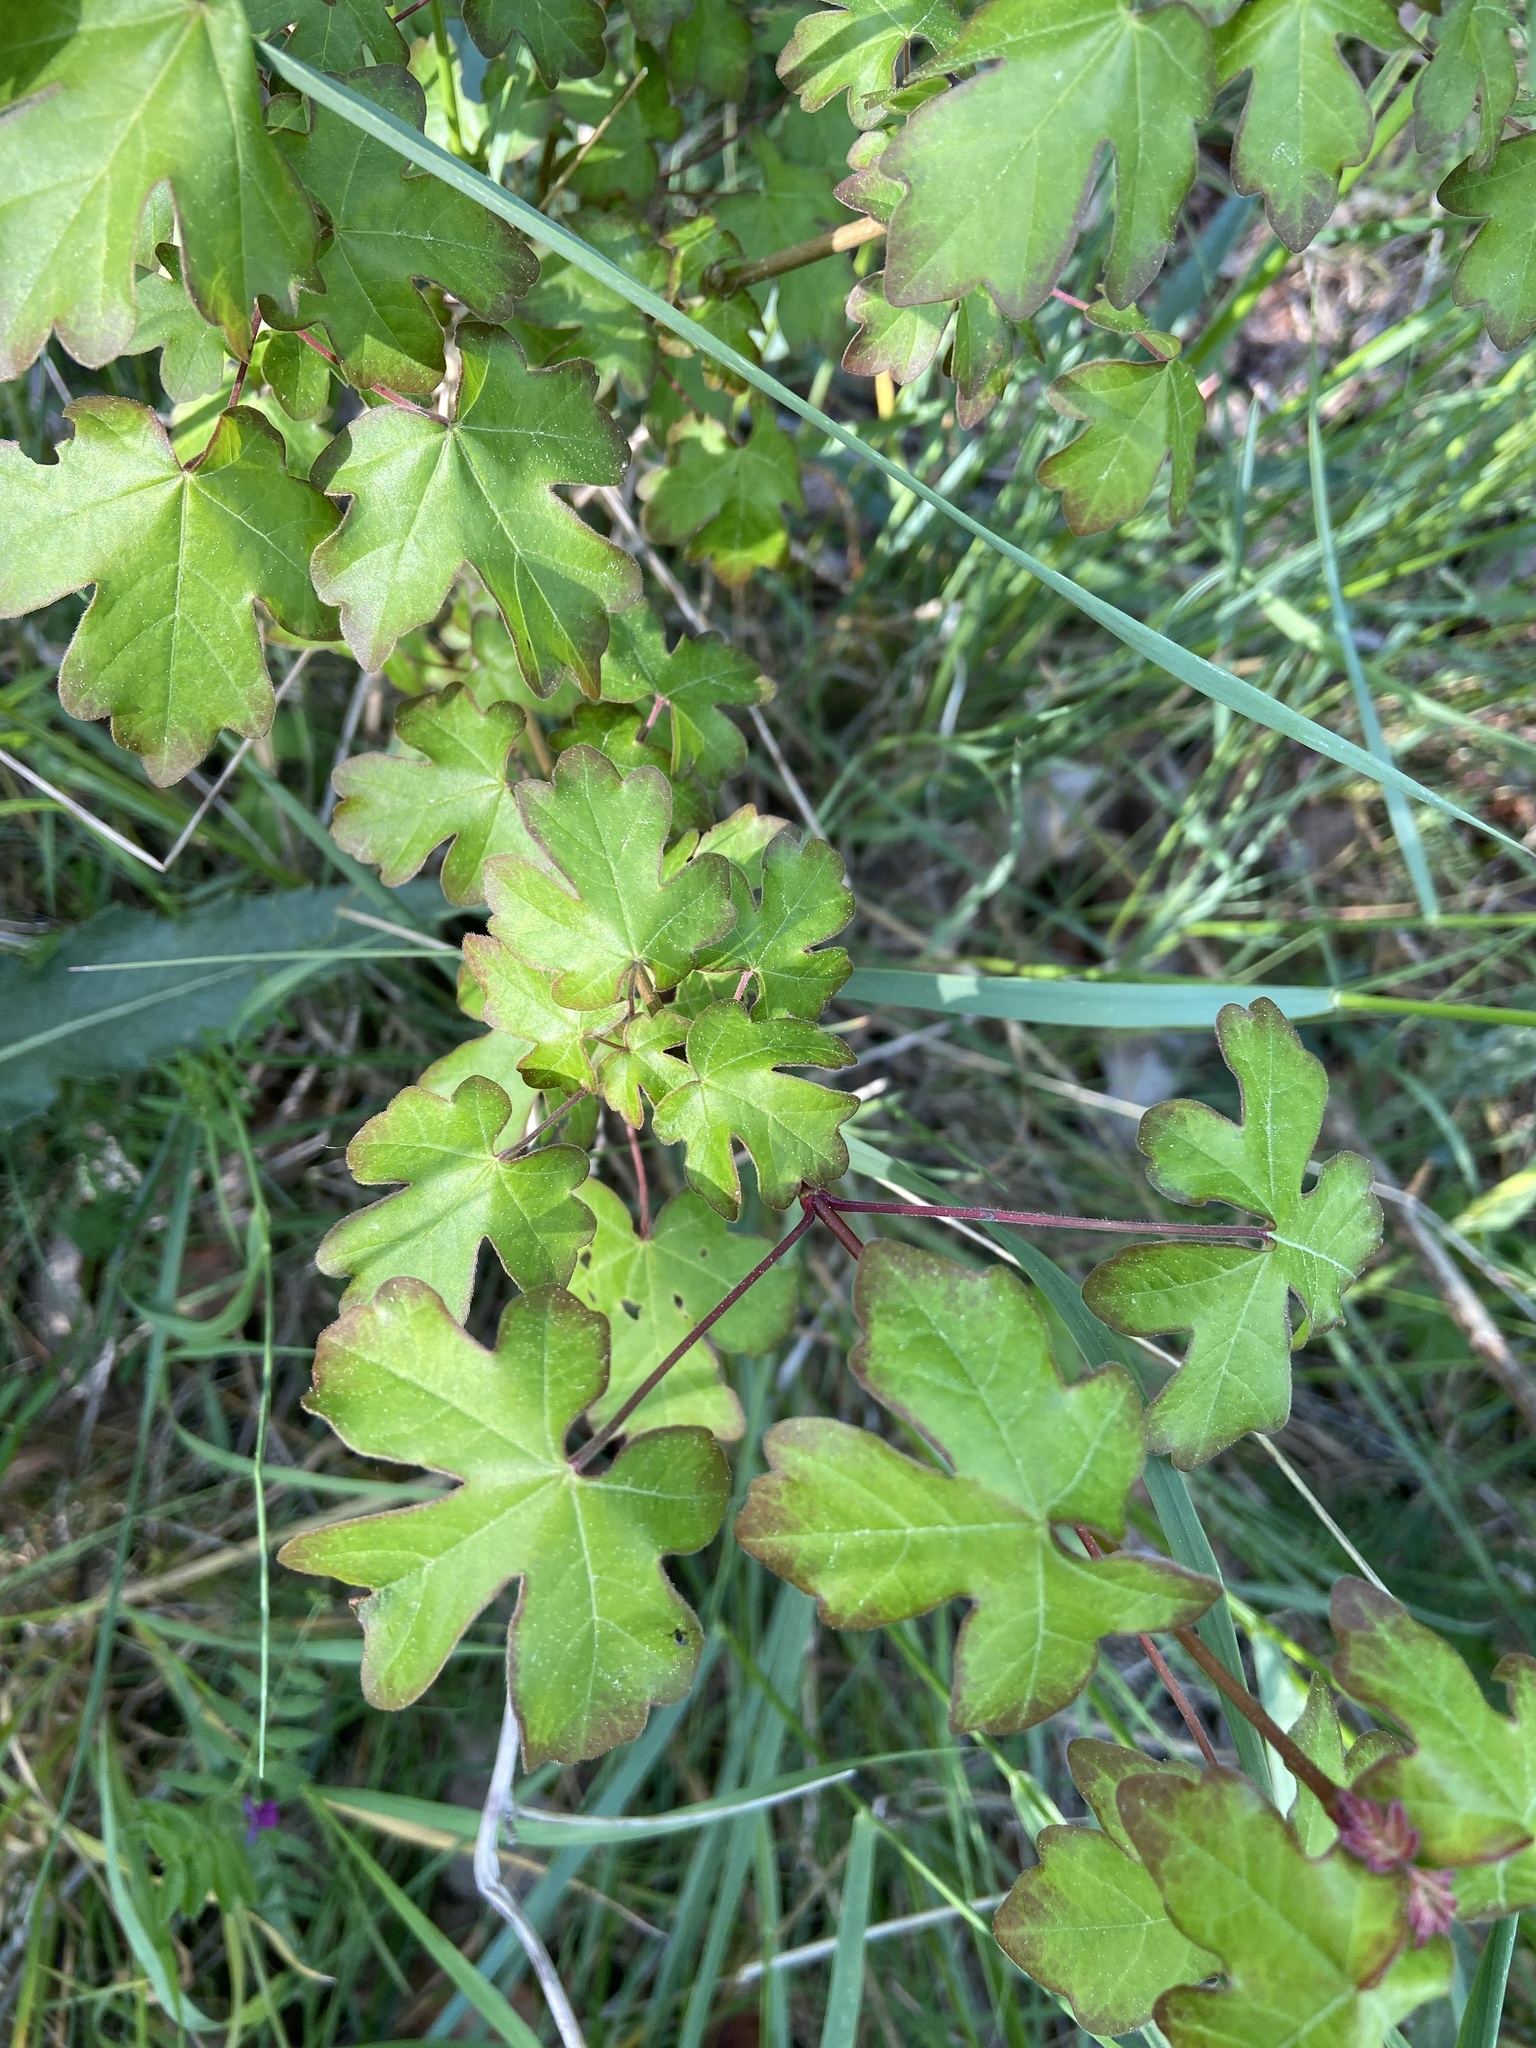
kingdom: Plantae
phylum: Tracheophyta
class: Magnoliopsida
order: Sapindales
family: Sapindaceae
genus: Acer
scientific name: Acer campestre
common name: Field maple
